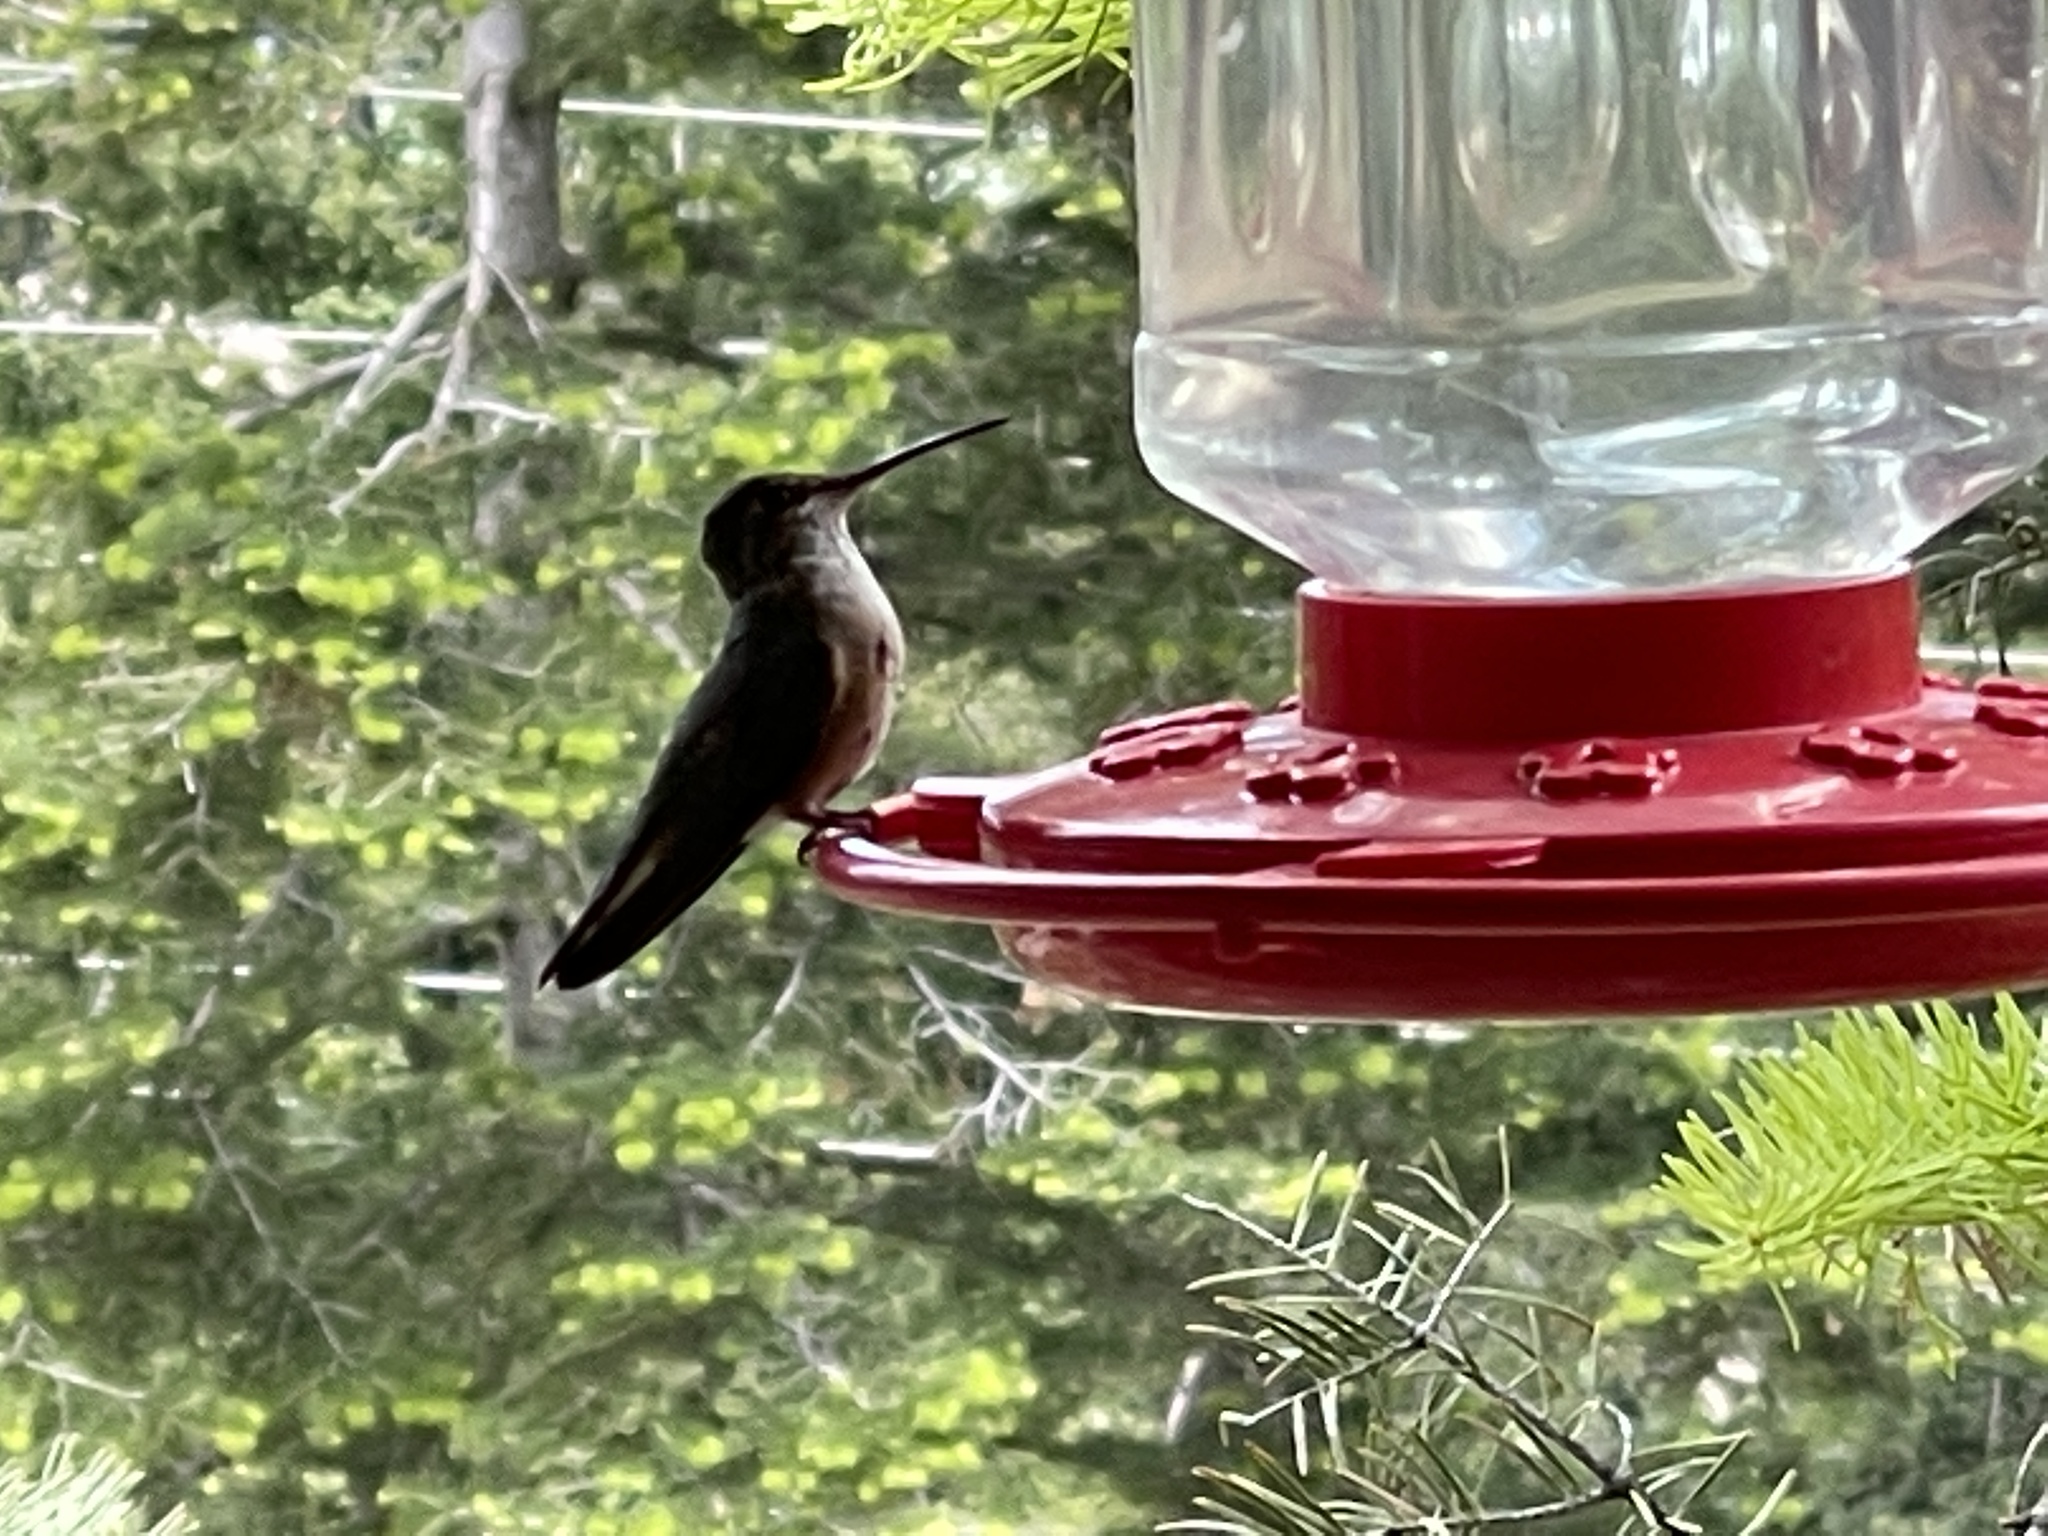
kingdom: Animalia
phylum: Chordata
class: Aves
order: Apodiformes
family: Trochilidae
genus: Selasphorus
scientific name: Selasphorus platycercus
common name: Broad-tailed hummingbird
